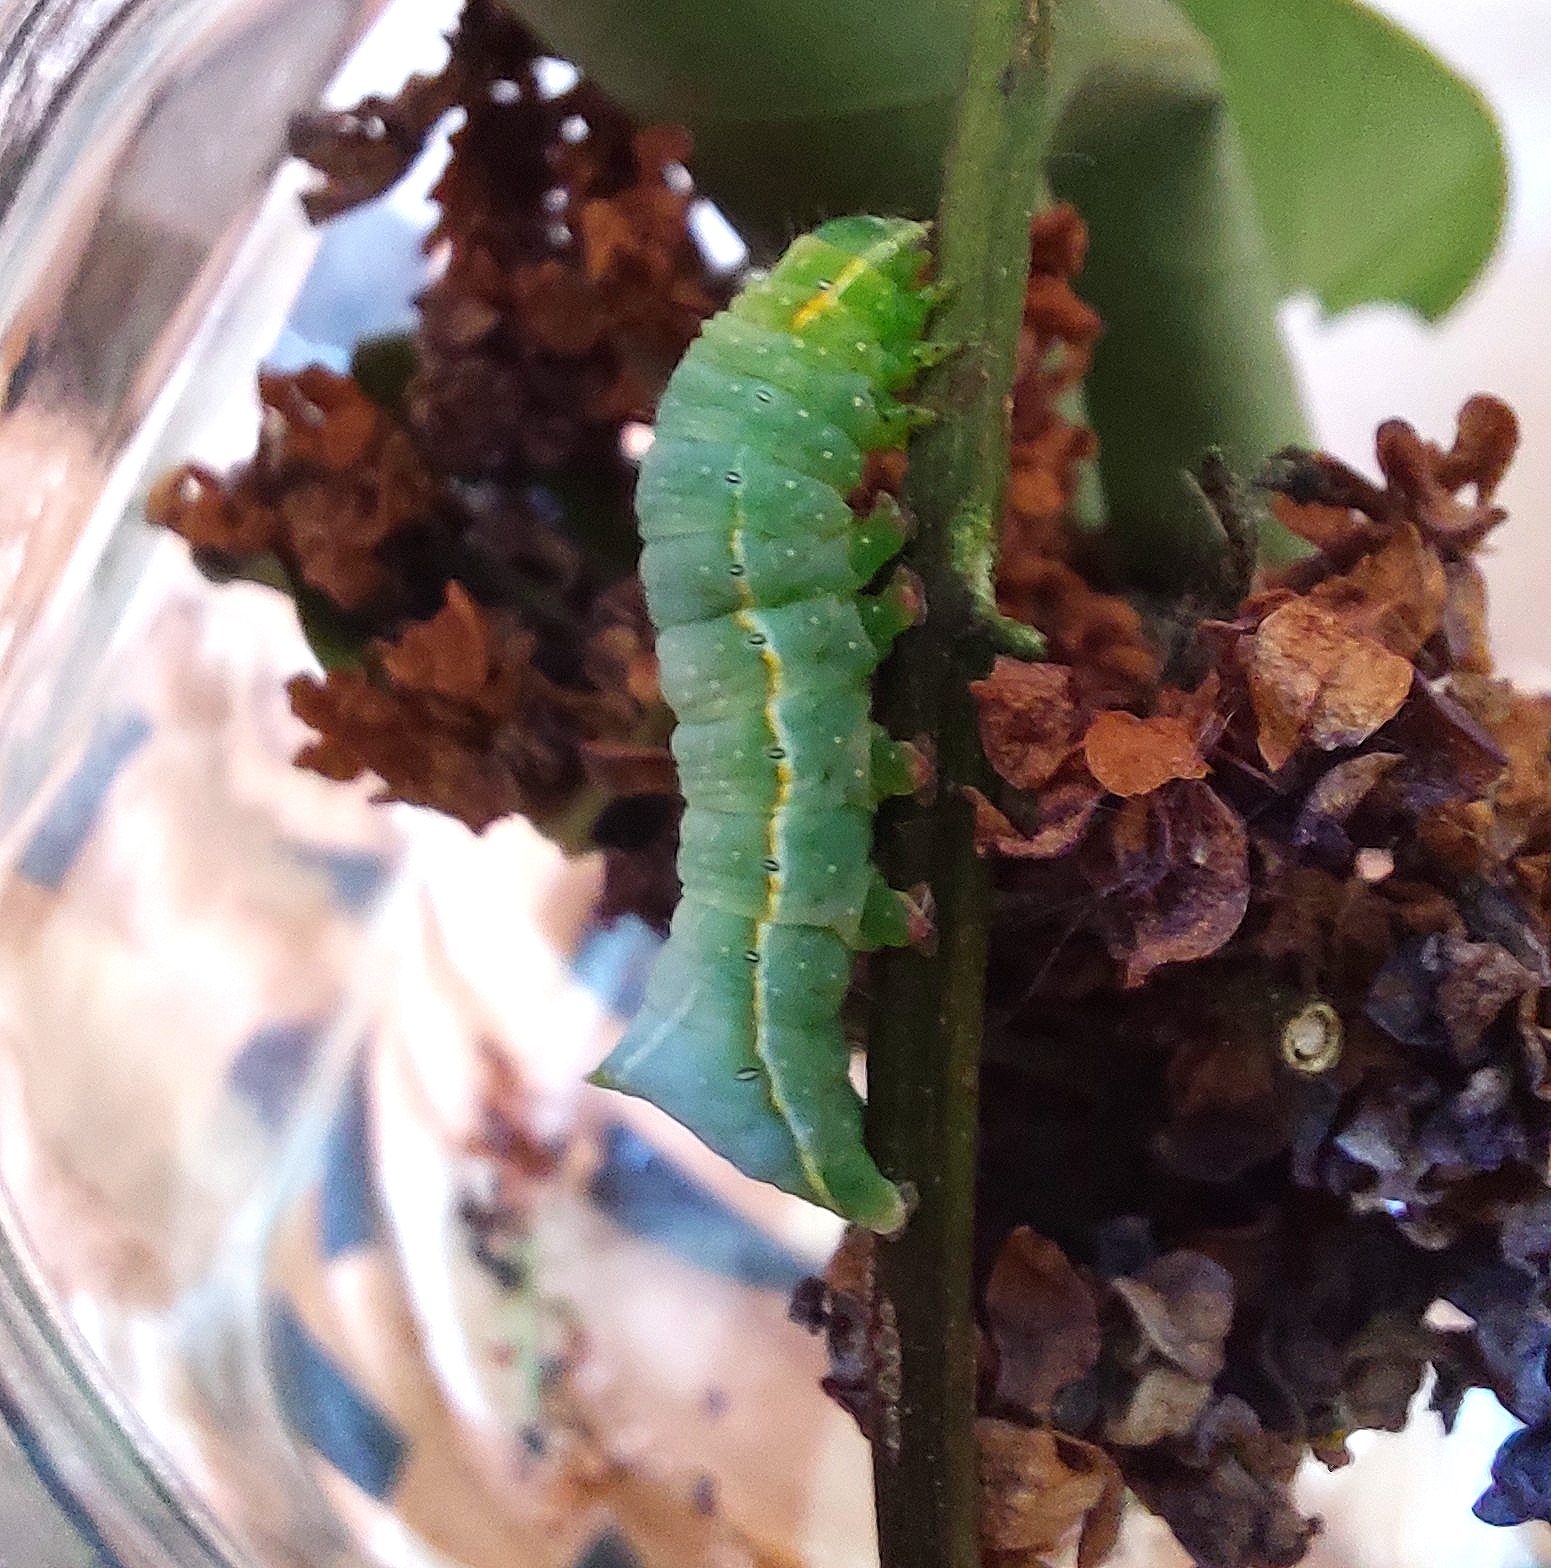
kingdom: Animalia
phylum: Arthropoda
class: Insecta
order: Lepidoptera
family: Noctuidae
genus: Amphipyra
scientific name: Amphipyra pyramidea
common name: Copper underwing
